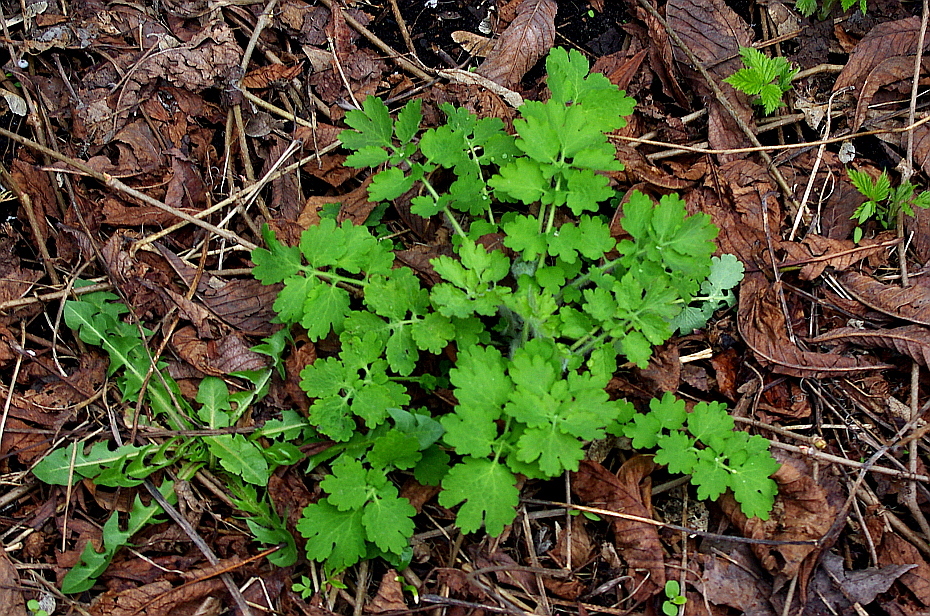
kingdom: Plantae
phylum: Tracheophyta
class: Magnoliopsida
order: Ranunculales
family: Papaveraceae
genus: Chelidonium
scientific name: Chelidonium majus
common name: Greater celandine
